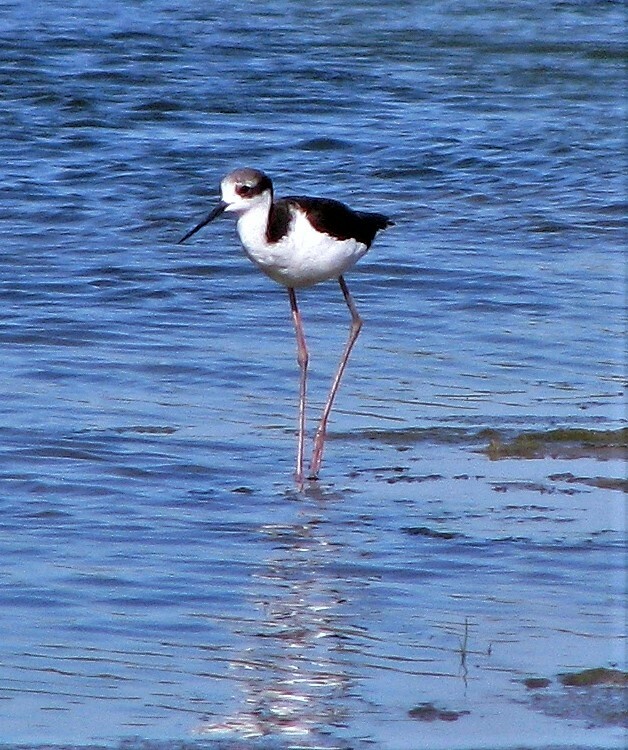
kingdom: Animalia
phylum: Chordata
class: Aves
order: Charadriiformes
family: Recurvirostridae
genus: Himantopus
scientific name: Himantopus mexicanus
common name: Black-necked stilt
